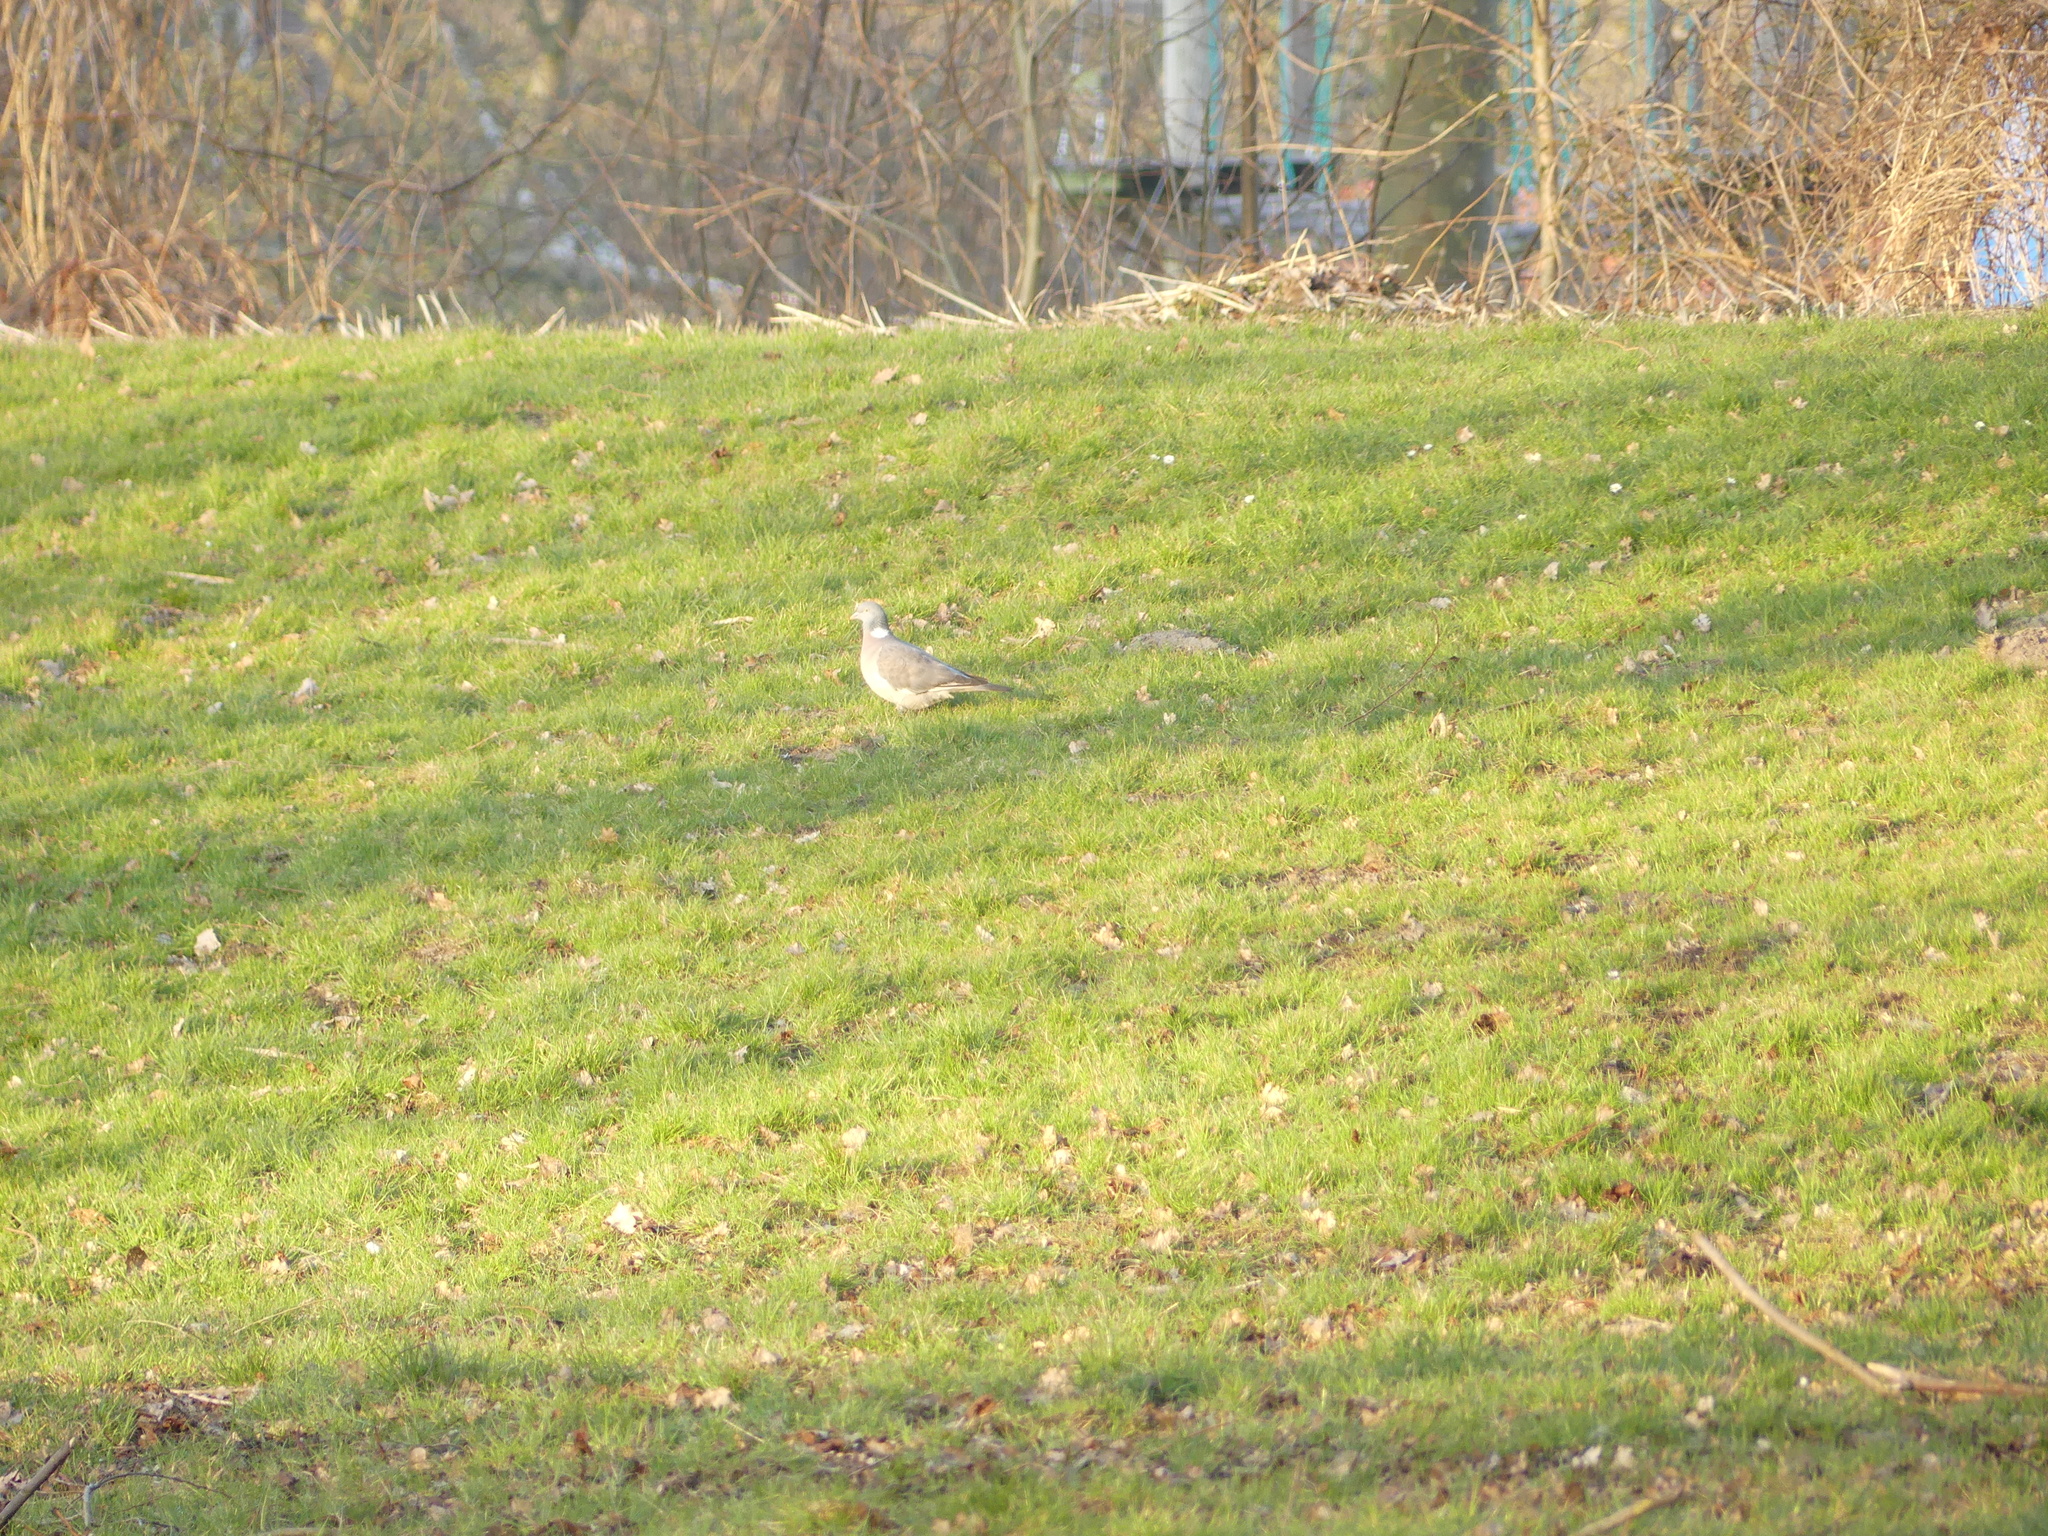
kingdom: Animalia
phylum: Chordata
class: Aves
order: Columbiformes
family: Columbidae
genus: Columba
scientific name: Columba palumbus
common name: Common wood pigeon
